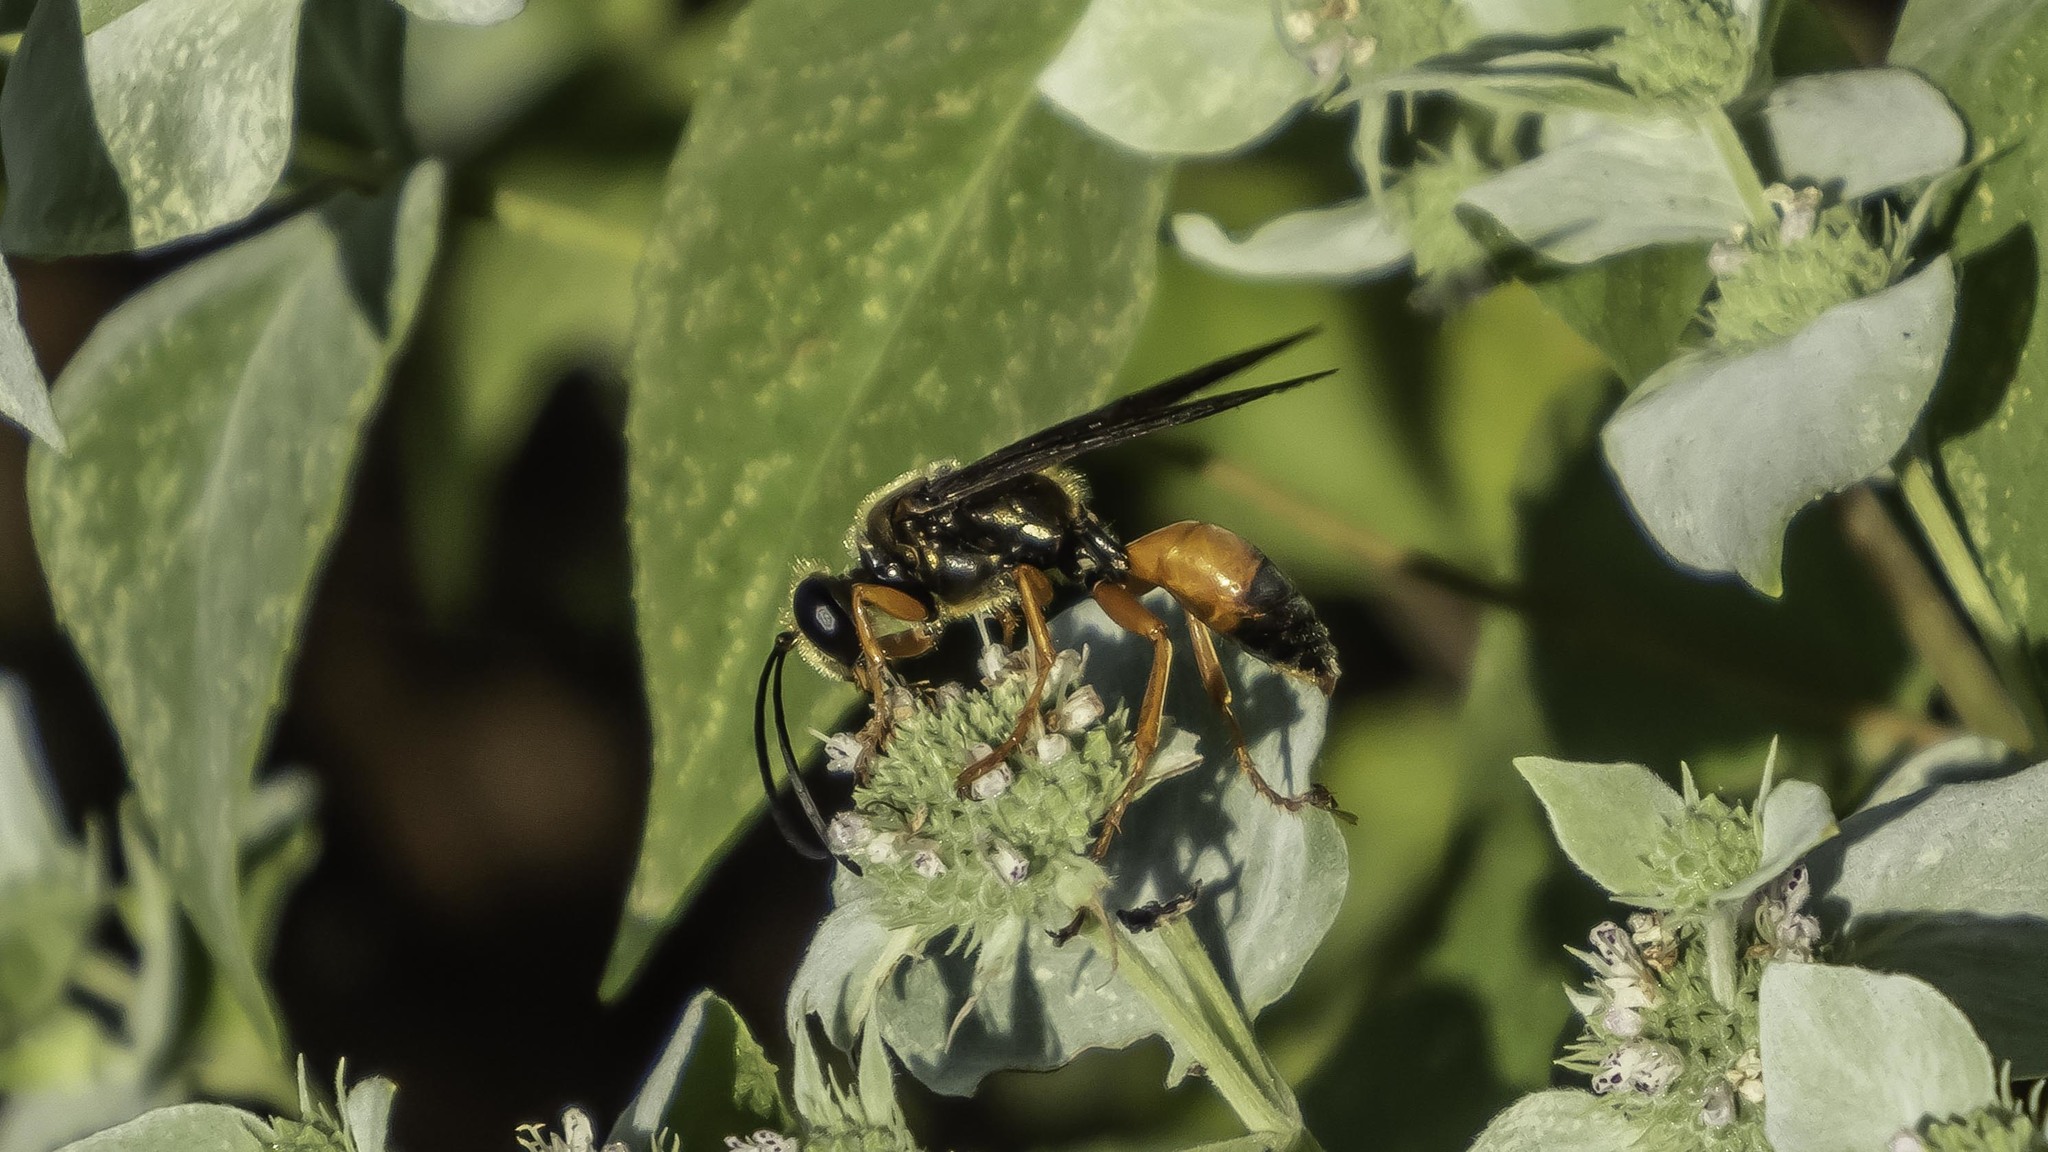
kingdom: Animalia
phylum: Arthropoda
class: Insecta
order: Hymenoptera
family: Sphecidae
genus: Sphex
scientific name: Sphex ichneumoneus
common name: Great golden digger wasp
